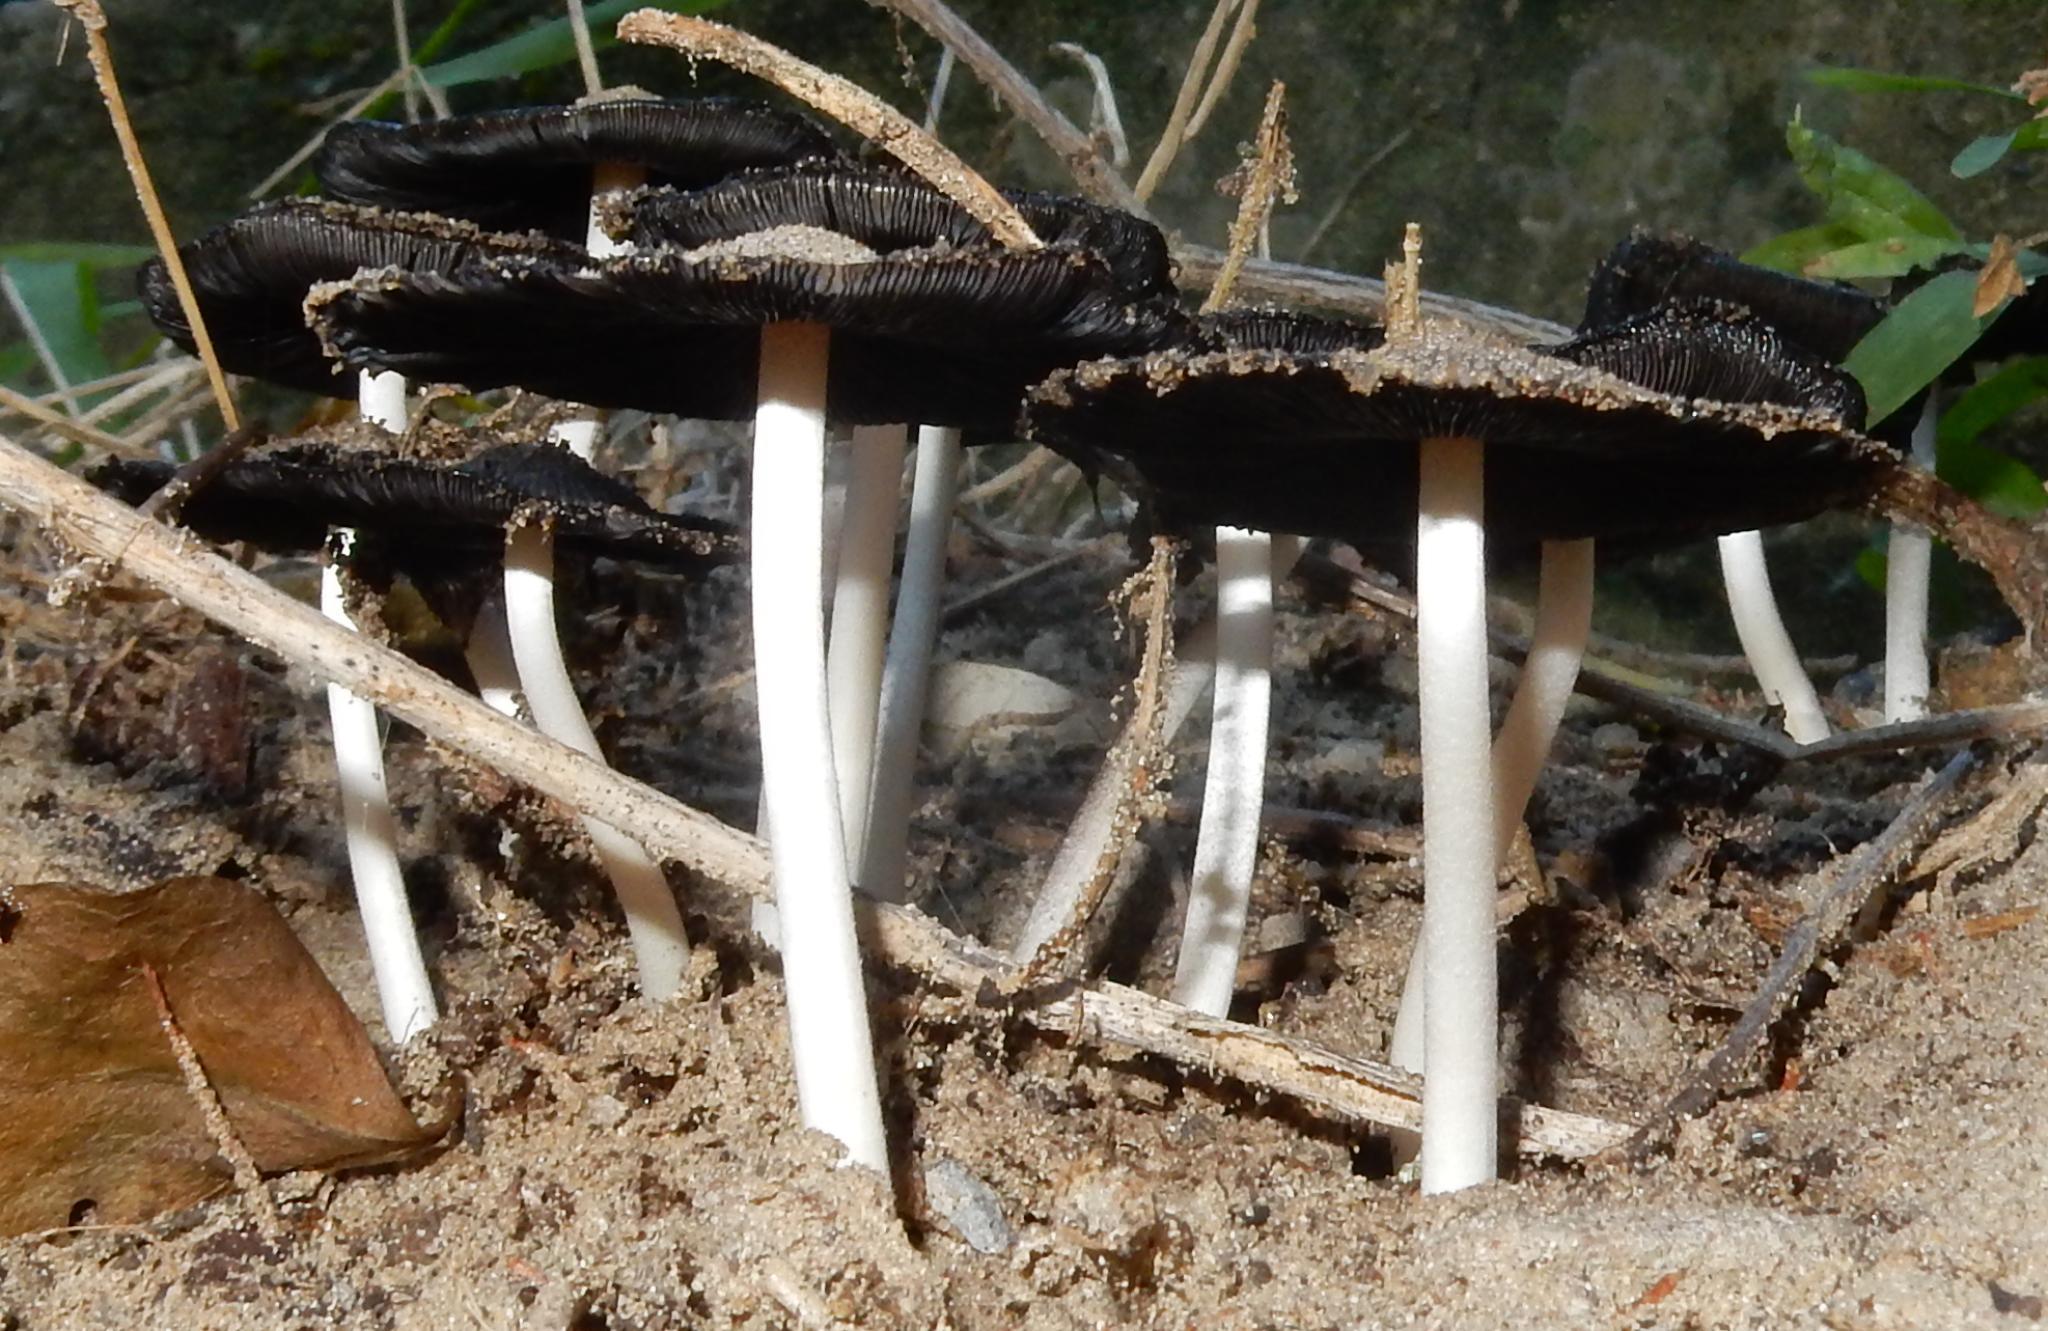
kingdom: Fungi
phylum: Basidiomycota
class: Agaricomycetes
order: Agaricales
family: Psathyrellaceae
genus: Coprinellus
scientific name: Coprinellus micaceus
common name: Glistening ink-cap
